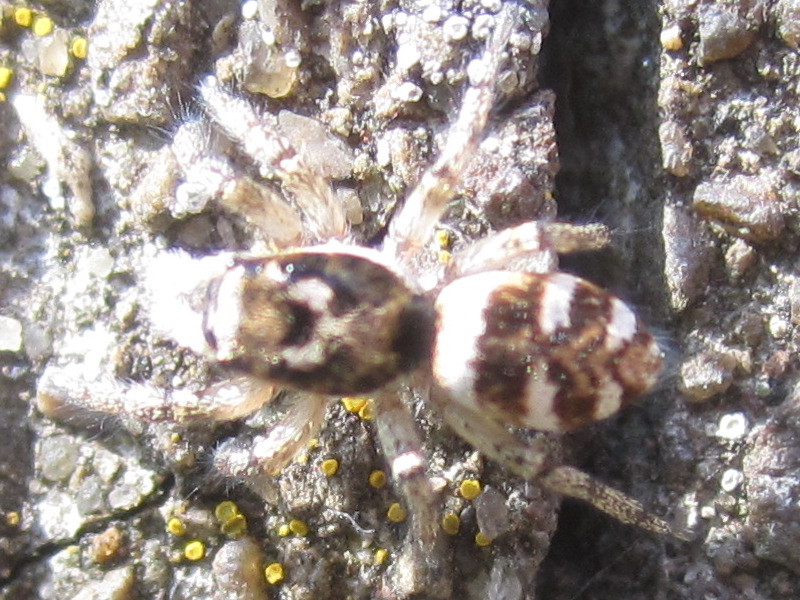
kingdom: Animalia
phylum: Arthropoda
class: Arachnida
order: Araneae
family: Salticidae
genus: Salticus
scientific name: Salticus scenicus
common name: Zebra jumper
